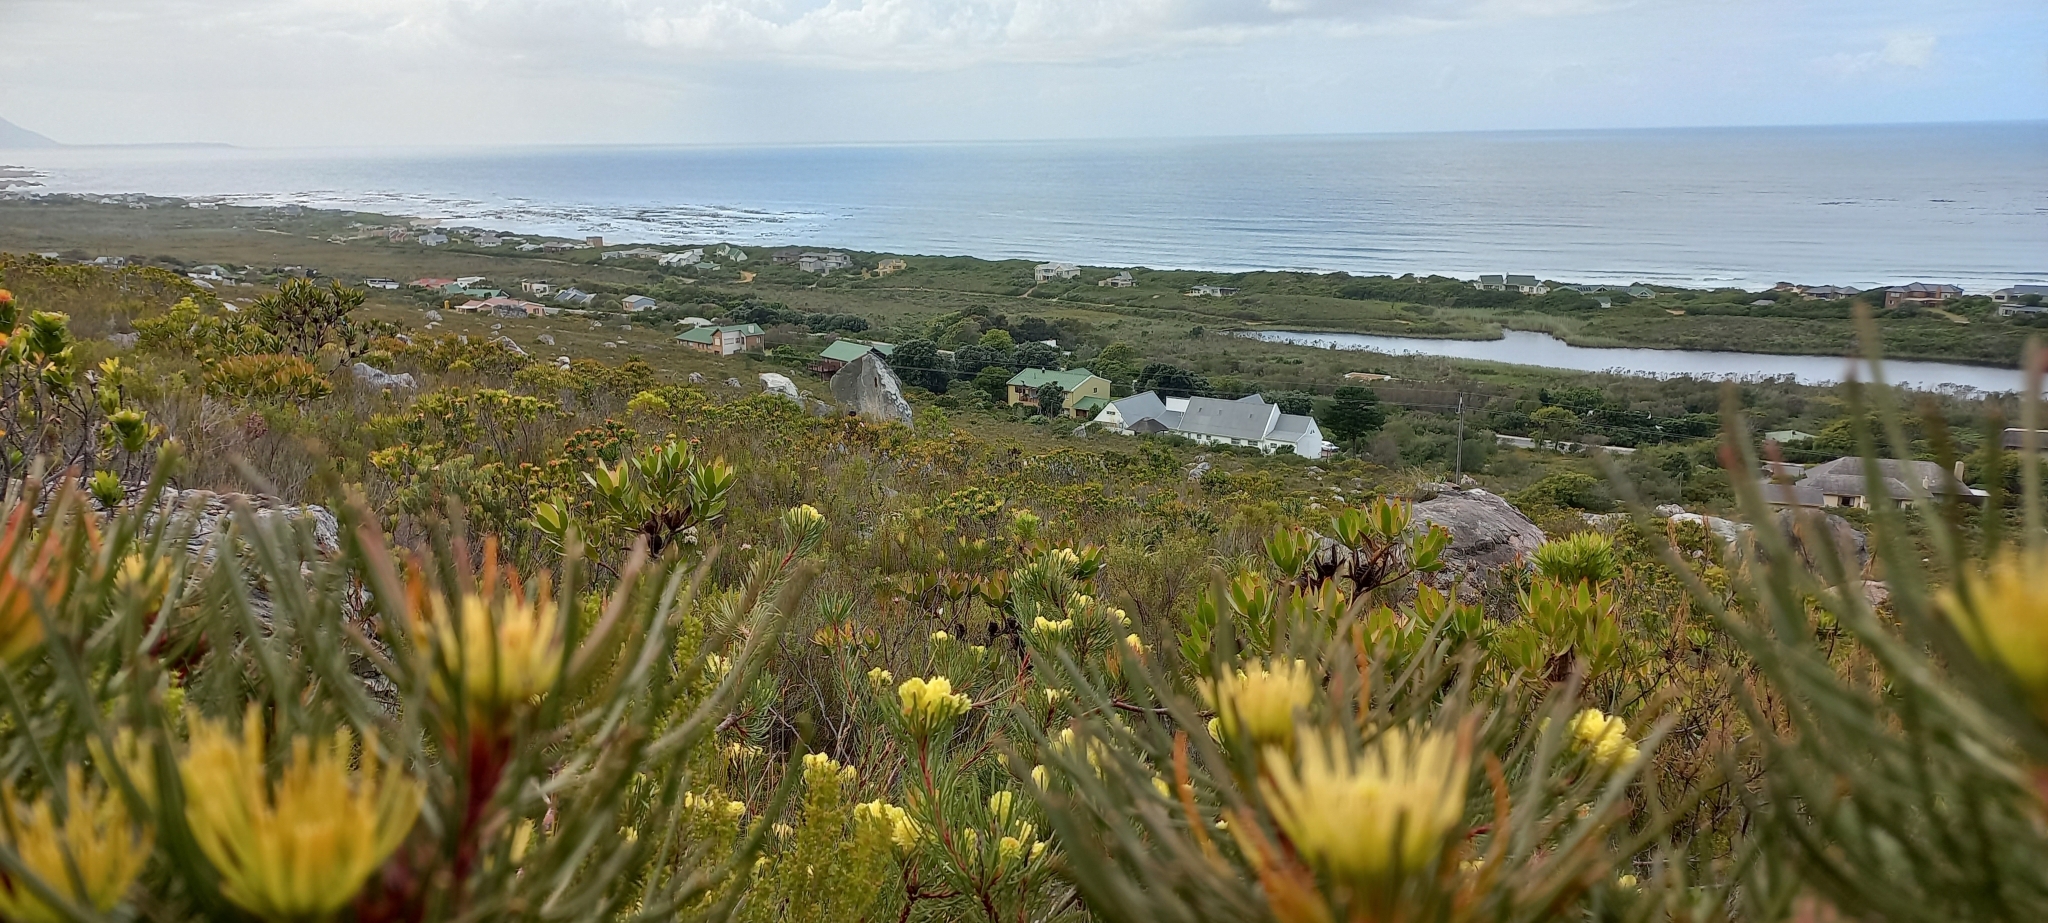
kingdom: Plantae
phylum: Tracheophyta
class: Magnoliopsida
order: Proteales
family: Proteaceae
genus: Aulax
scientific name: Aulax cancellata
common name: Channel-leaf featherbush
